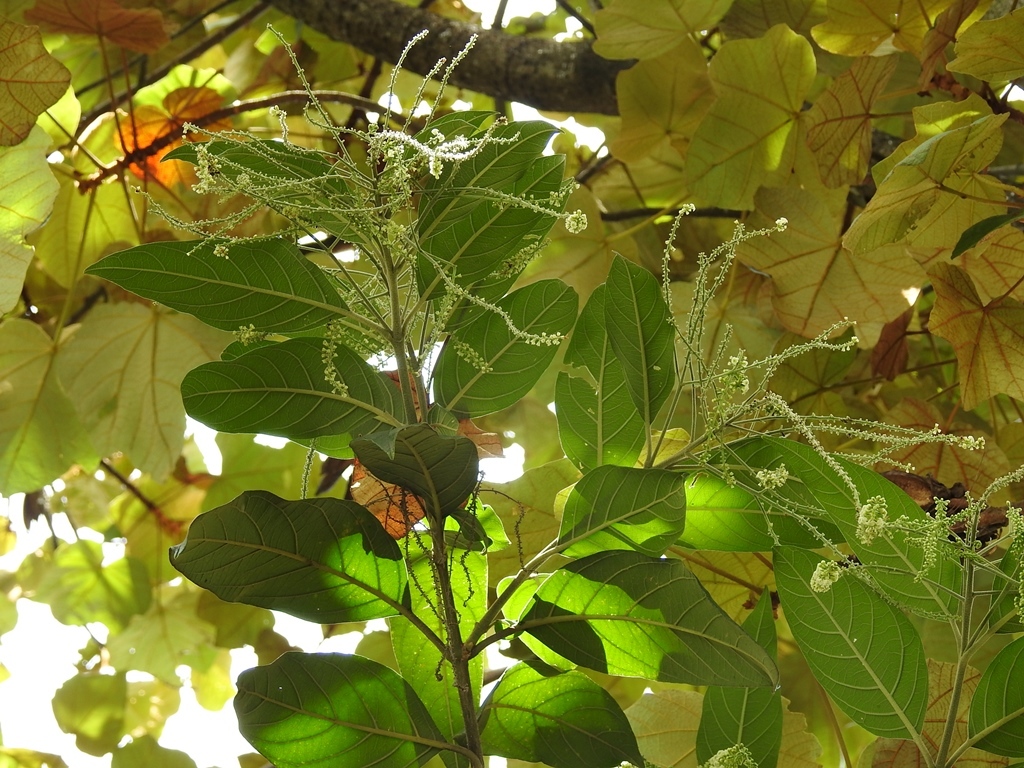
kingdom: Plantae
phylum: Tracheophyta
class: Magnoliopsida
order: Lamiales
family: Verbenaceae
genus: Citharexylum
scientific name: Citharexylum mocinoi
